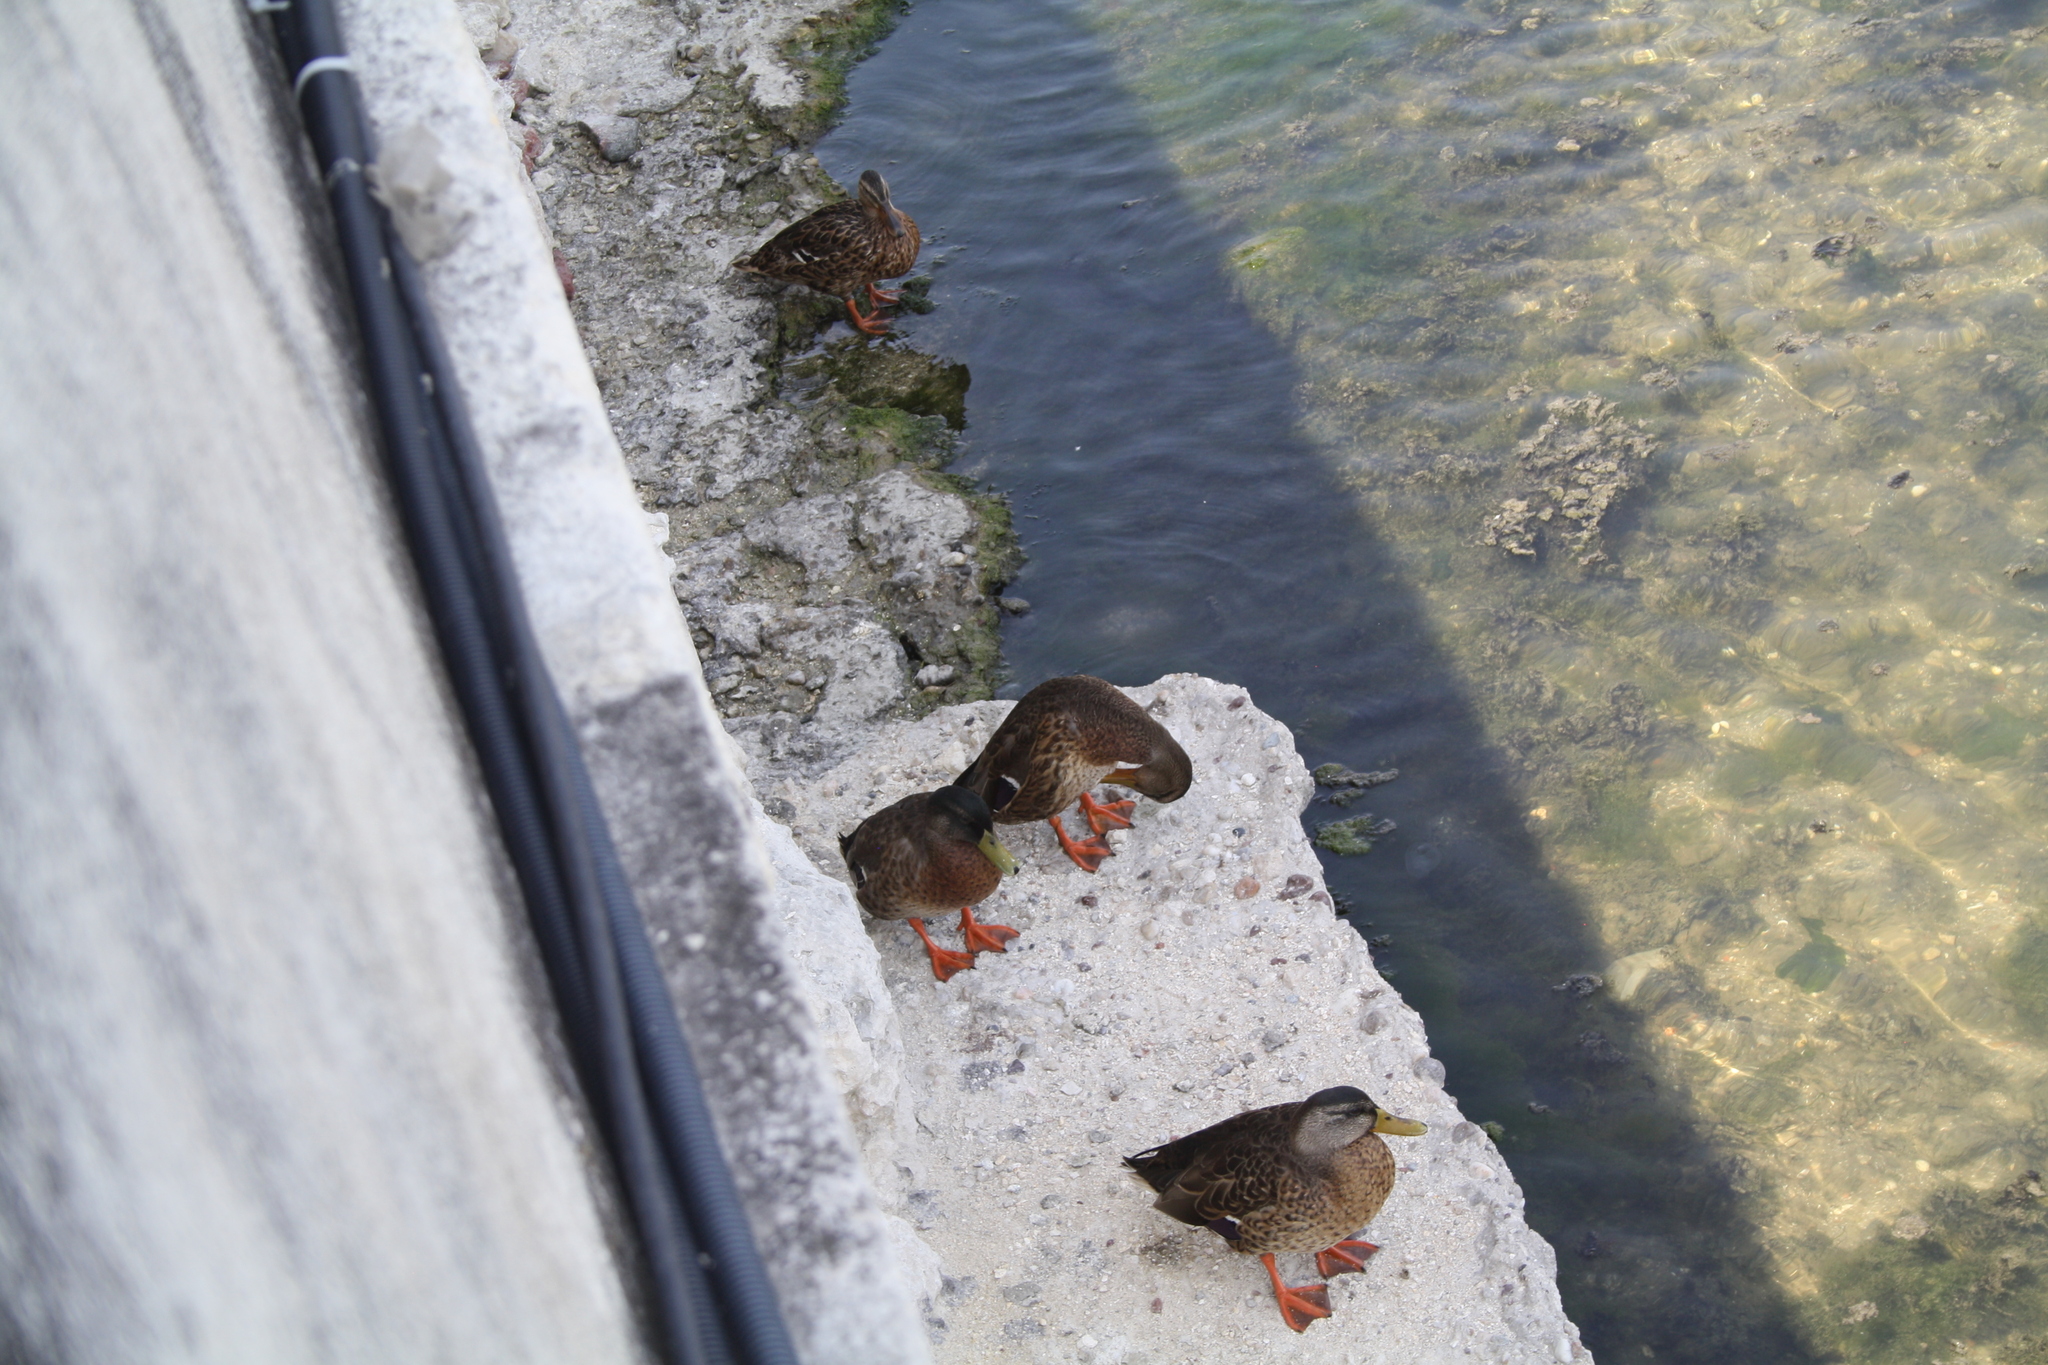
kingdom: Animalia
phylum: Chordata
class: Aves
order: Anseriformes
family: Anatidae
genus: Anas
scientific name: Anas platyrhynchos
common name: Mallard
